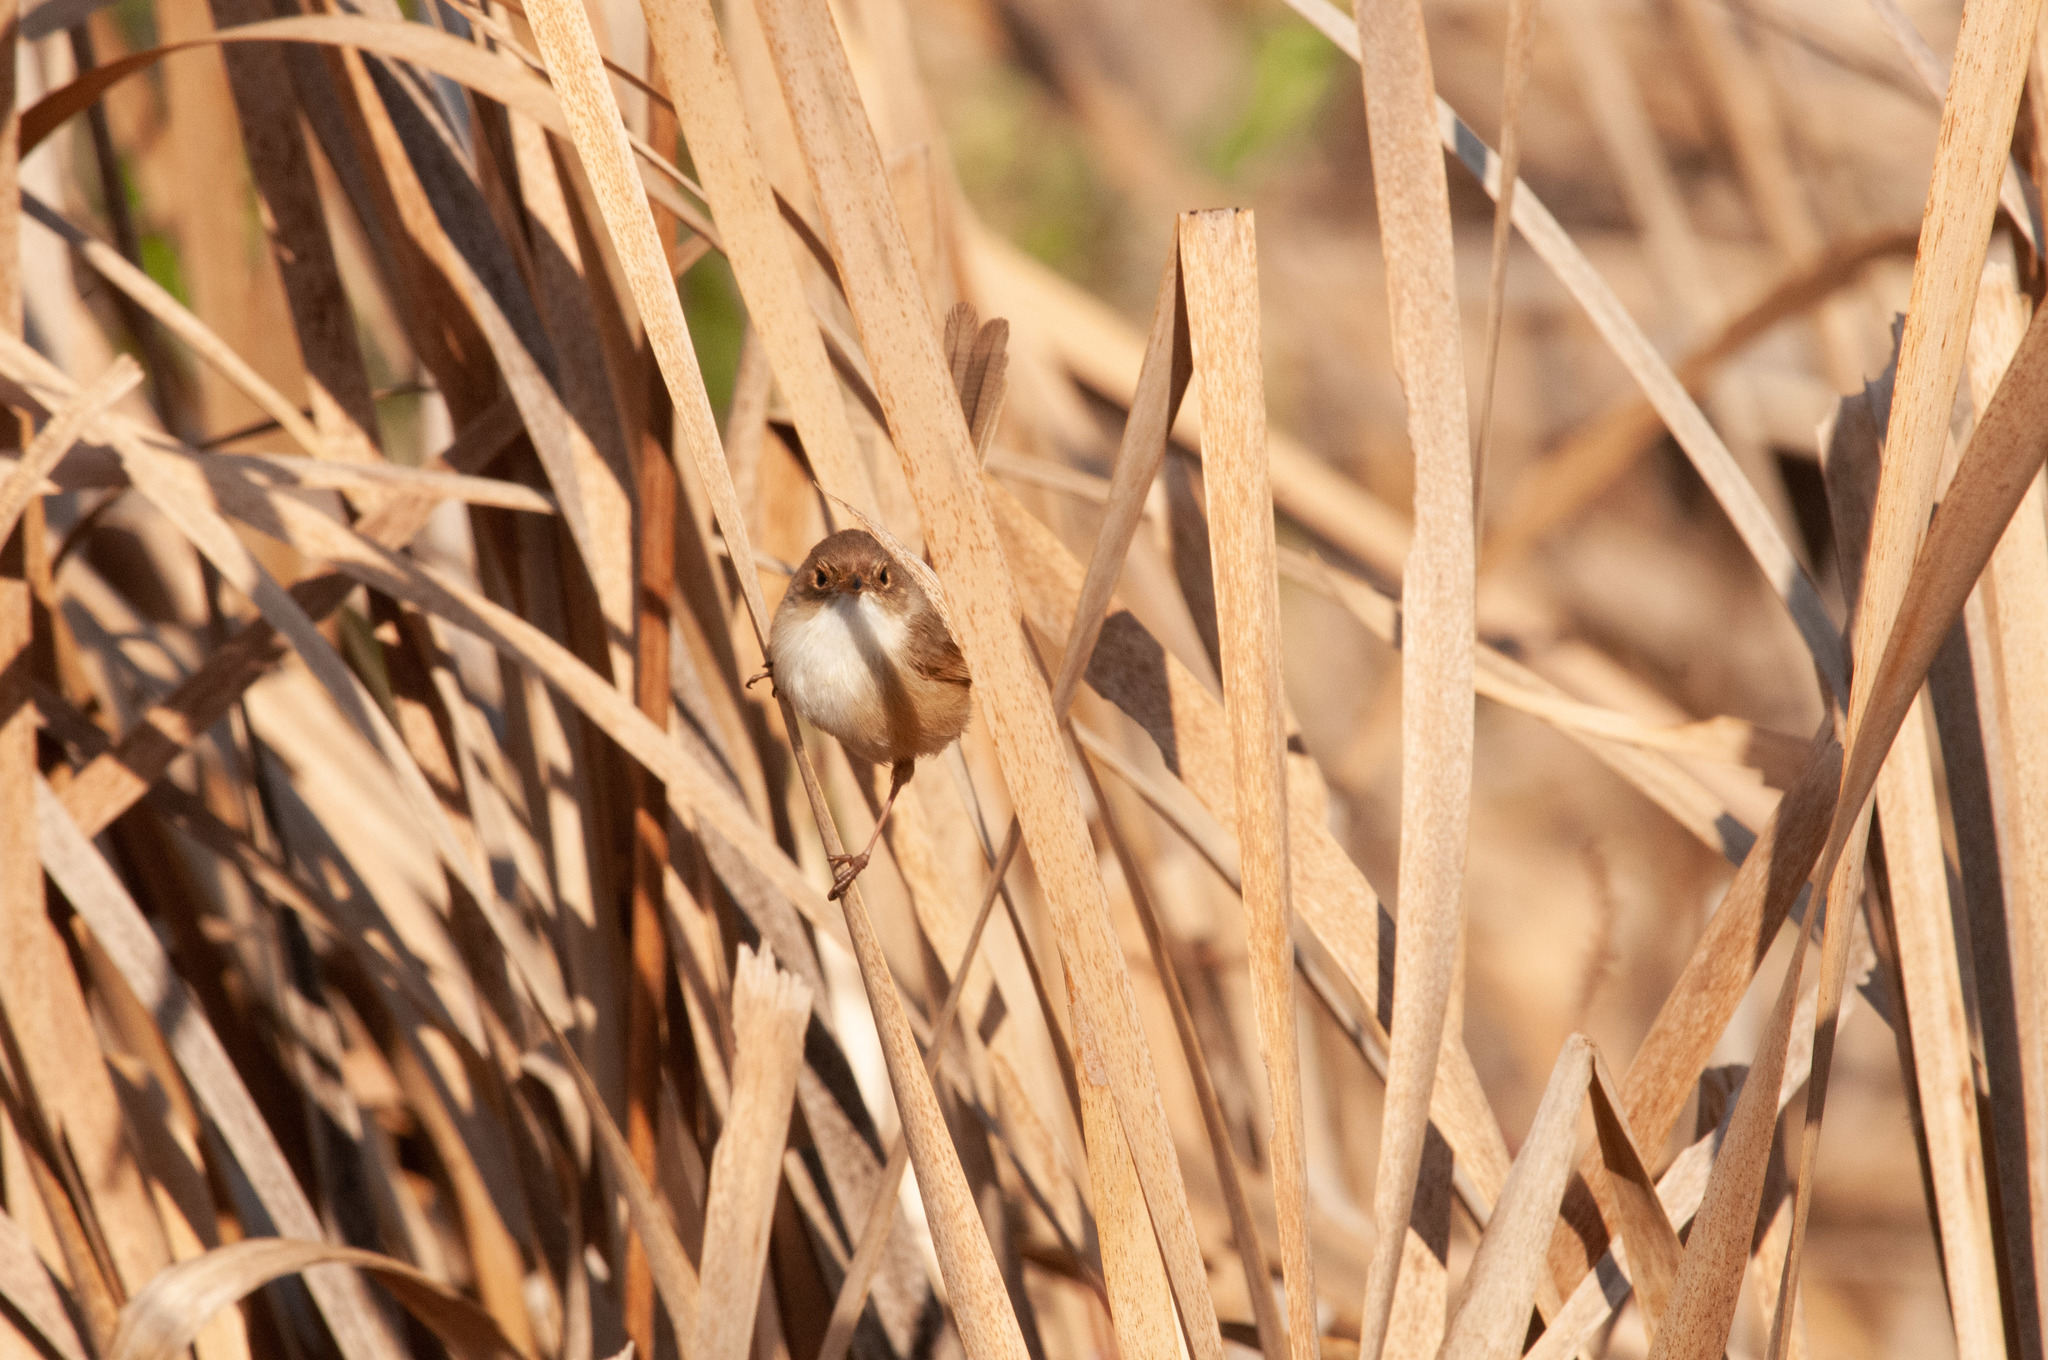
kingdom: Animalia
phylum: Chordata
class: Aves
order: Passeriformes
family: Maluridae
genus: Malurus
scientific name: Malurus melanocephalus
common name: Red-backed fairywren
